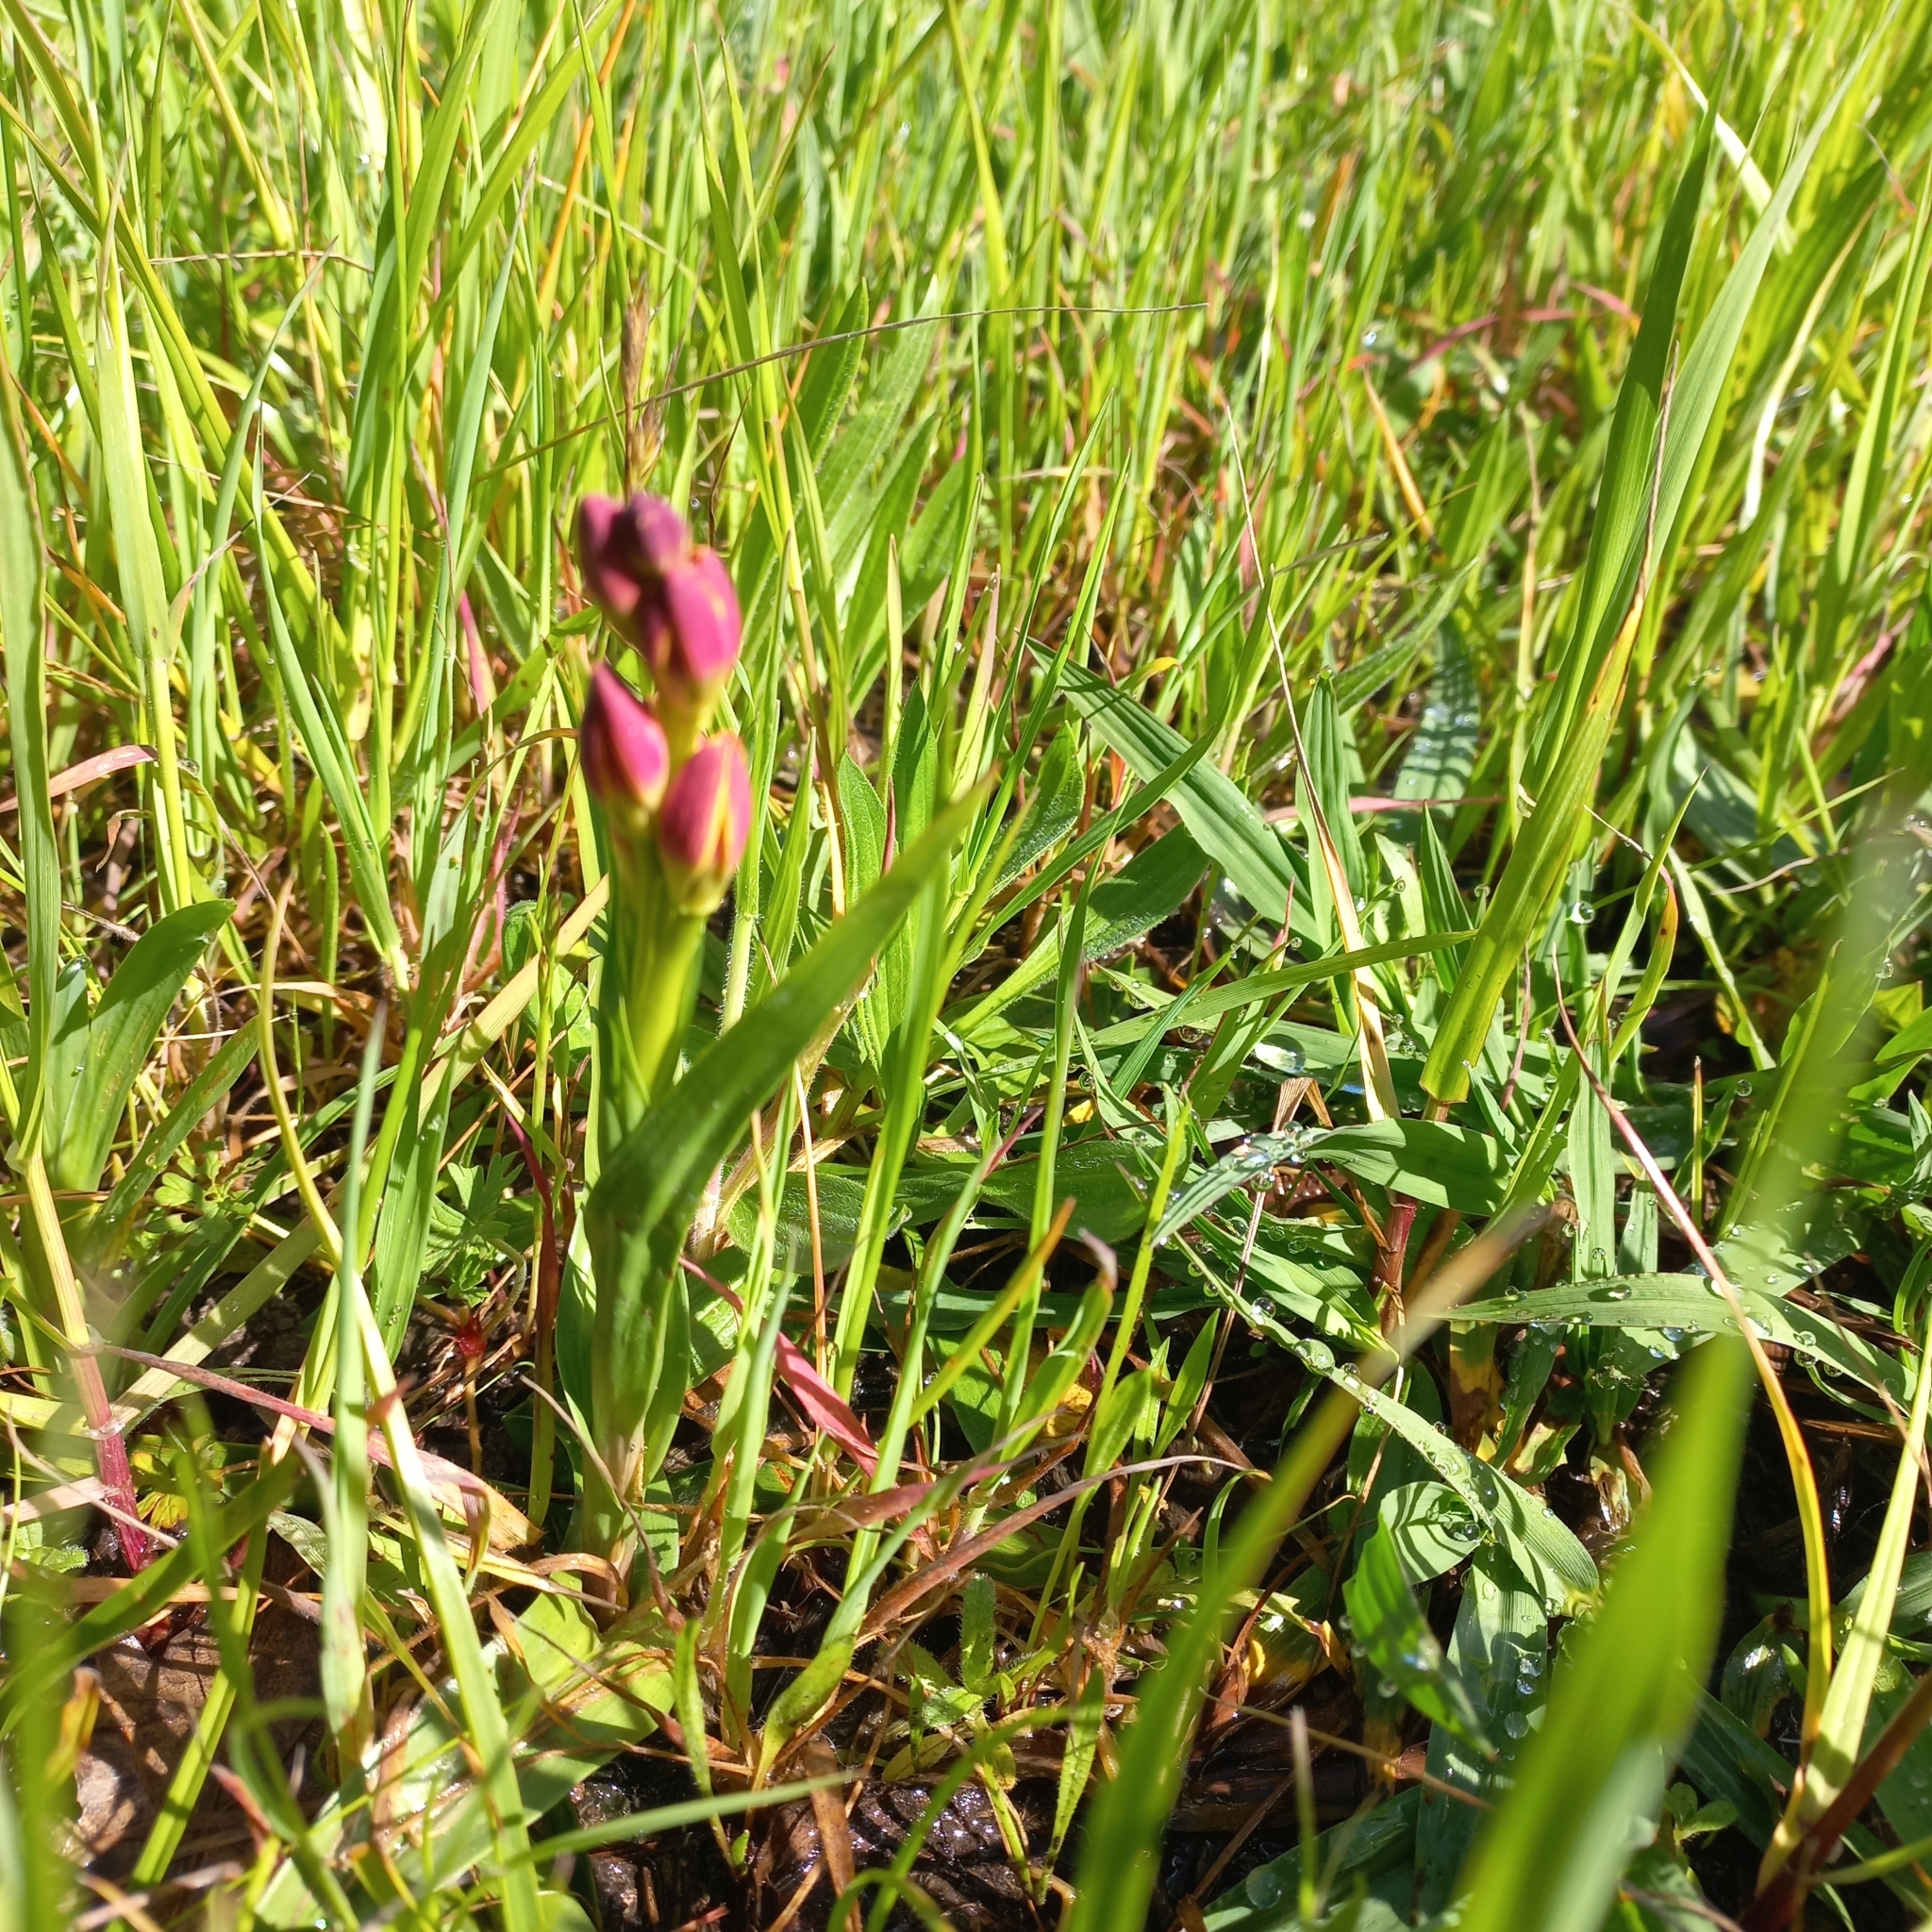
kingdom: Plantae
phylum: Tracheophyta
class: Liliopsida
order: Liliales
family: Colchicaceae
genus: Baeometra
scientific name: Baeometra uniflora
